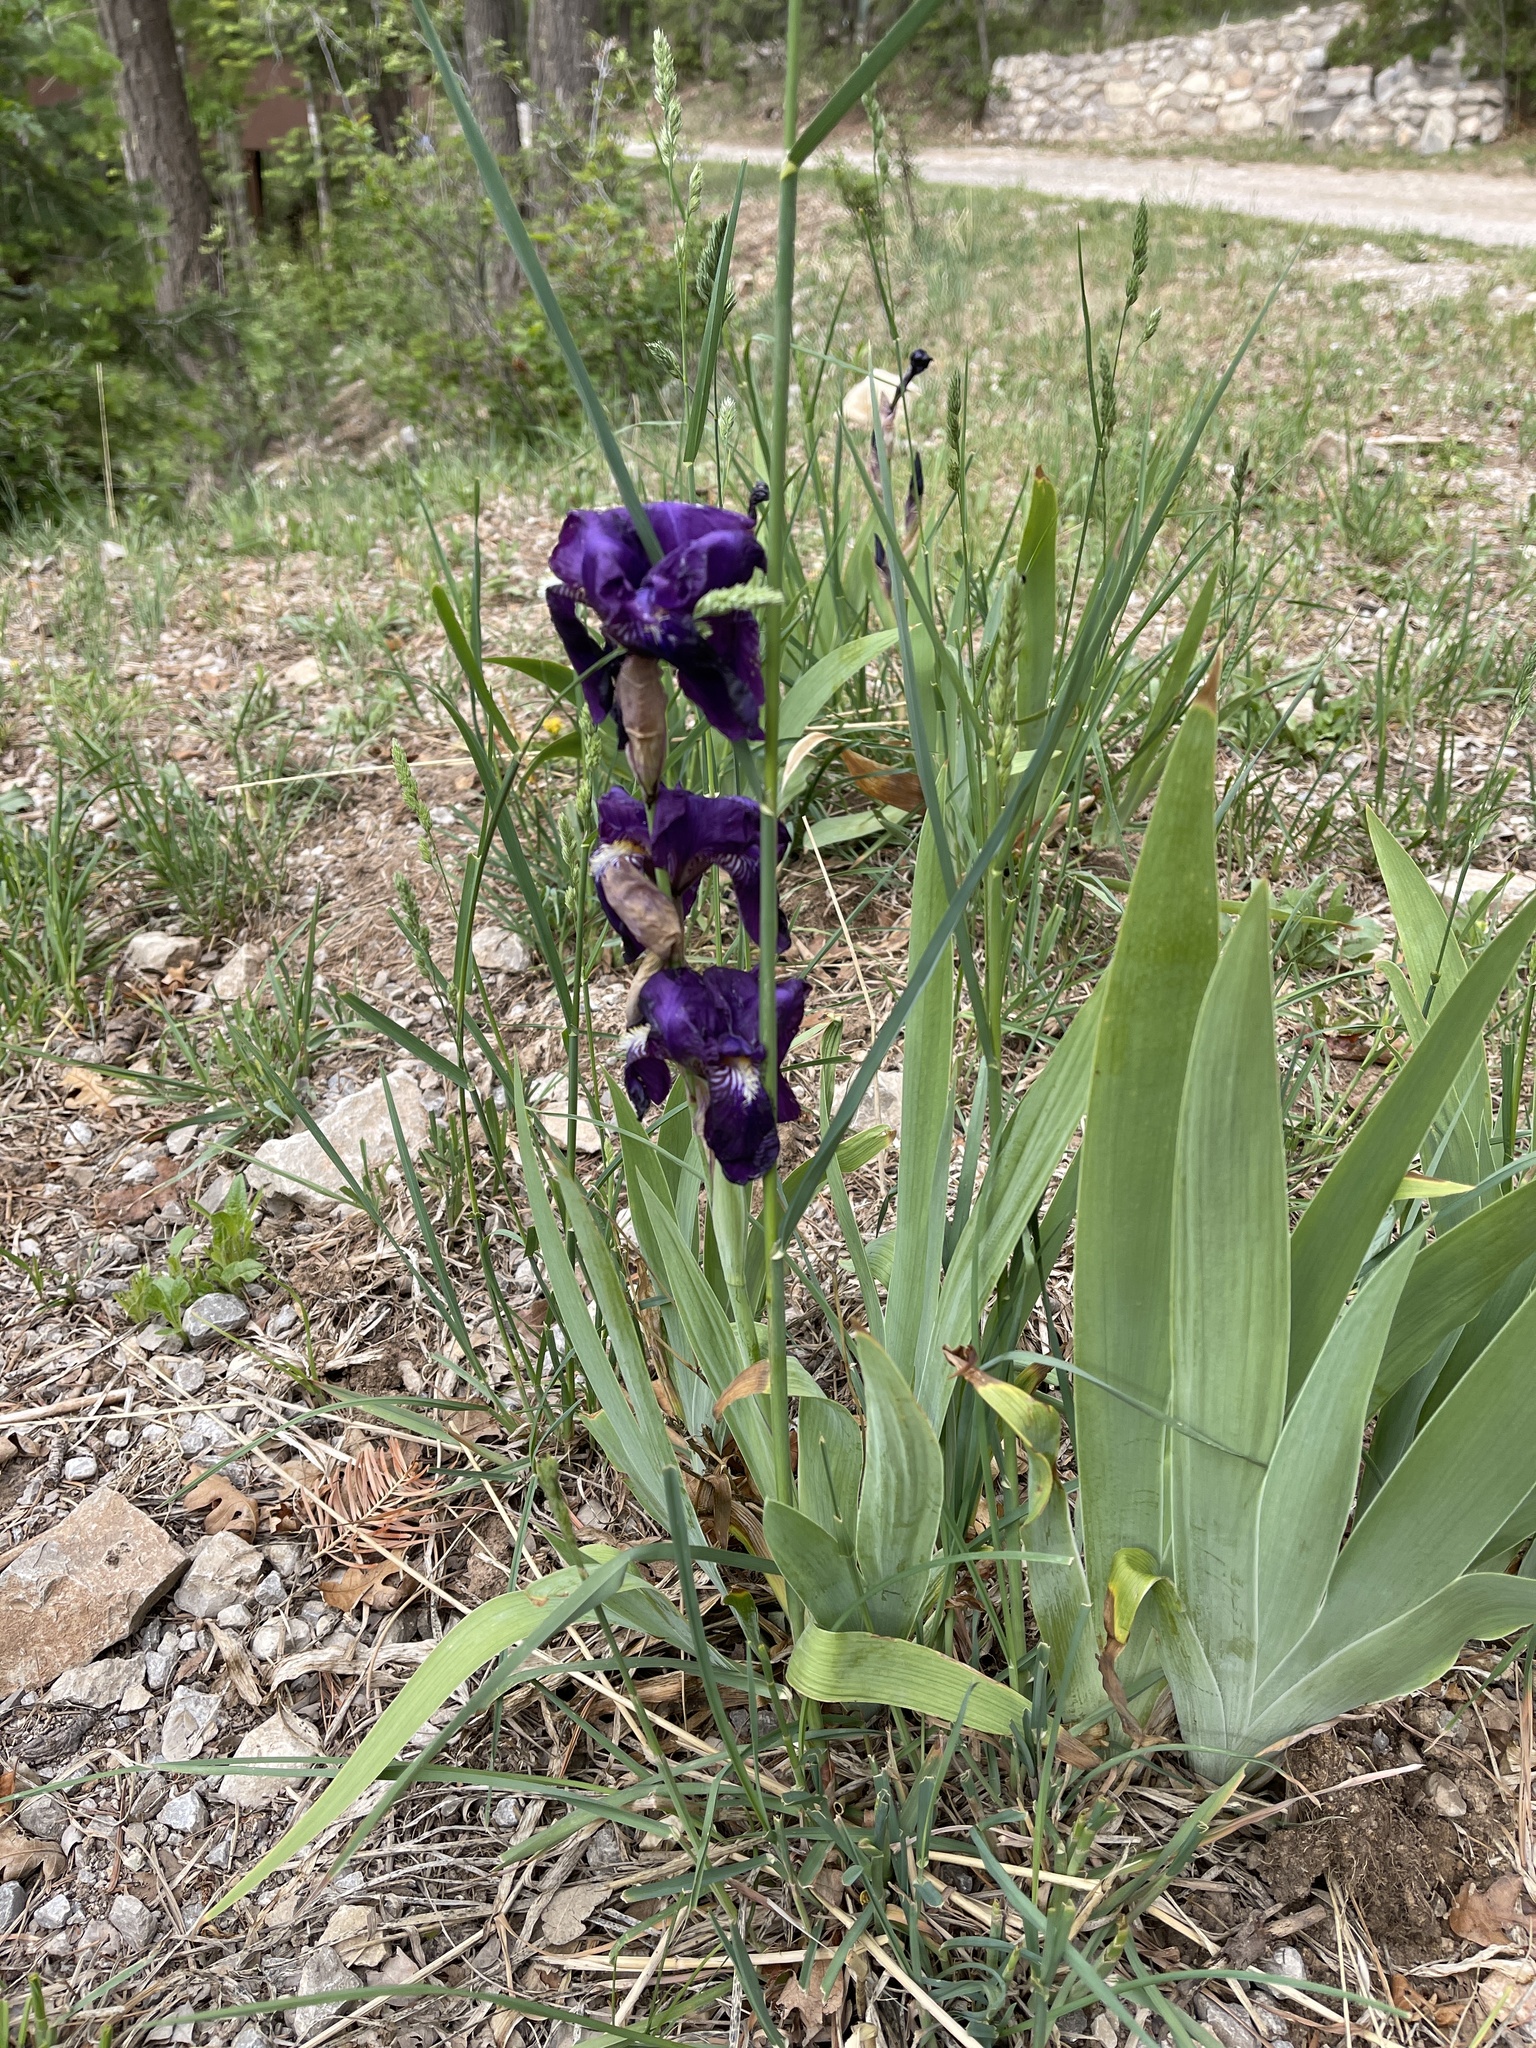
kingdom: Plantae
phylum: Tracheophyta
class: Liliopsida
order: Asparagales
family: Iridaceae
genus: Iris
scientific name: Iris germanica
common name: German iris
